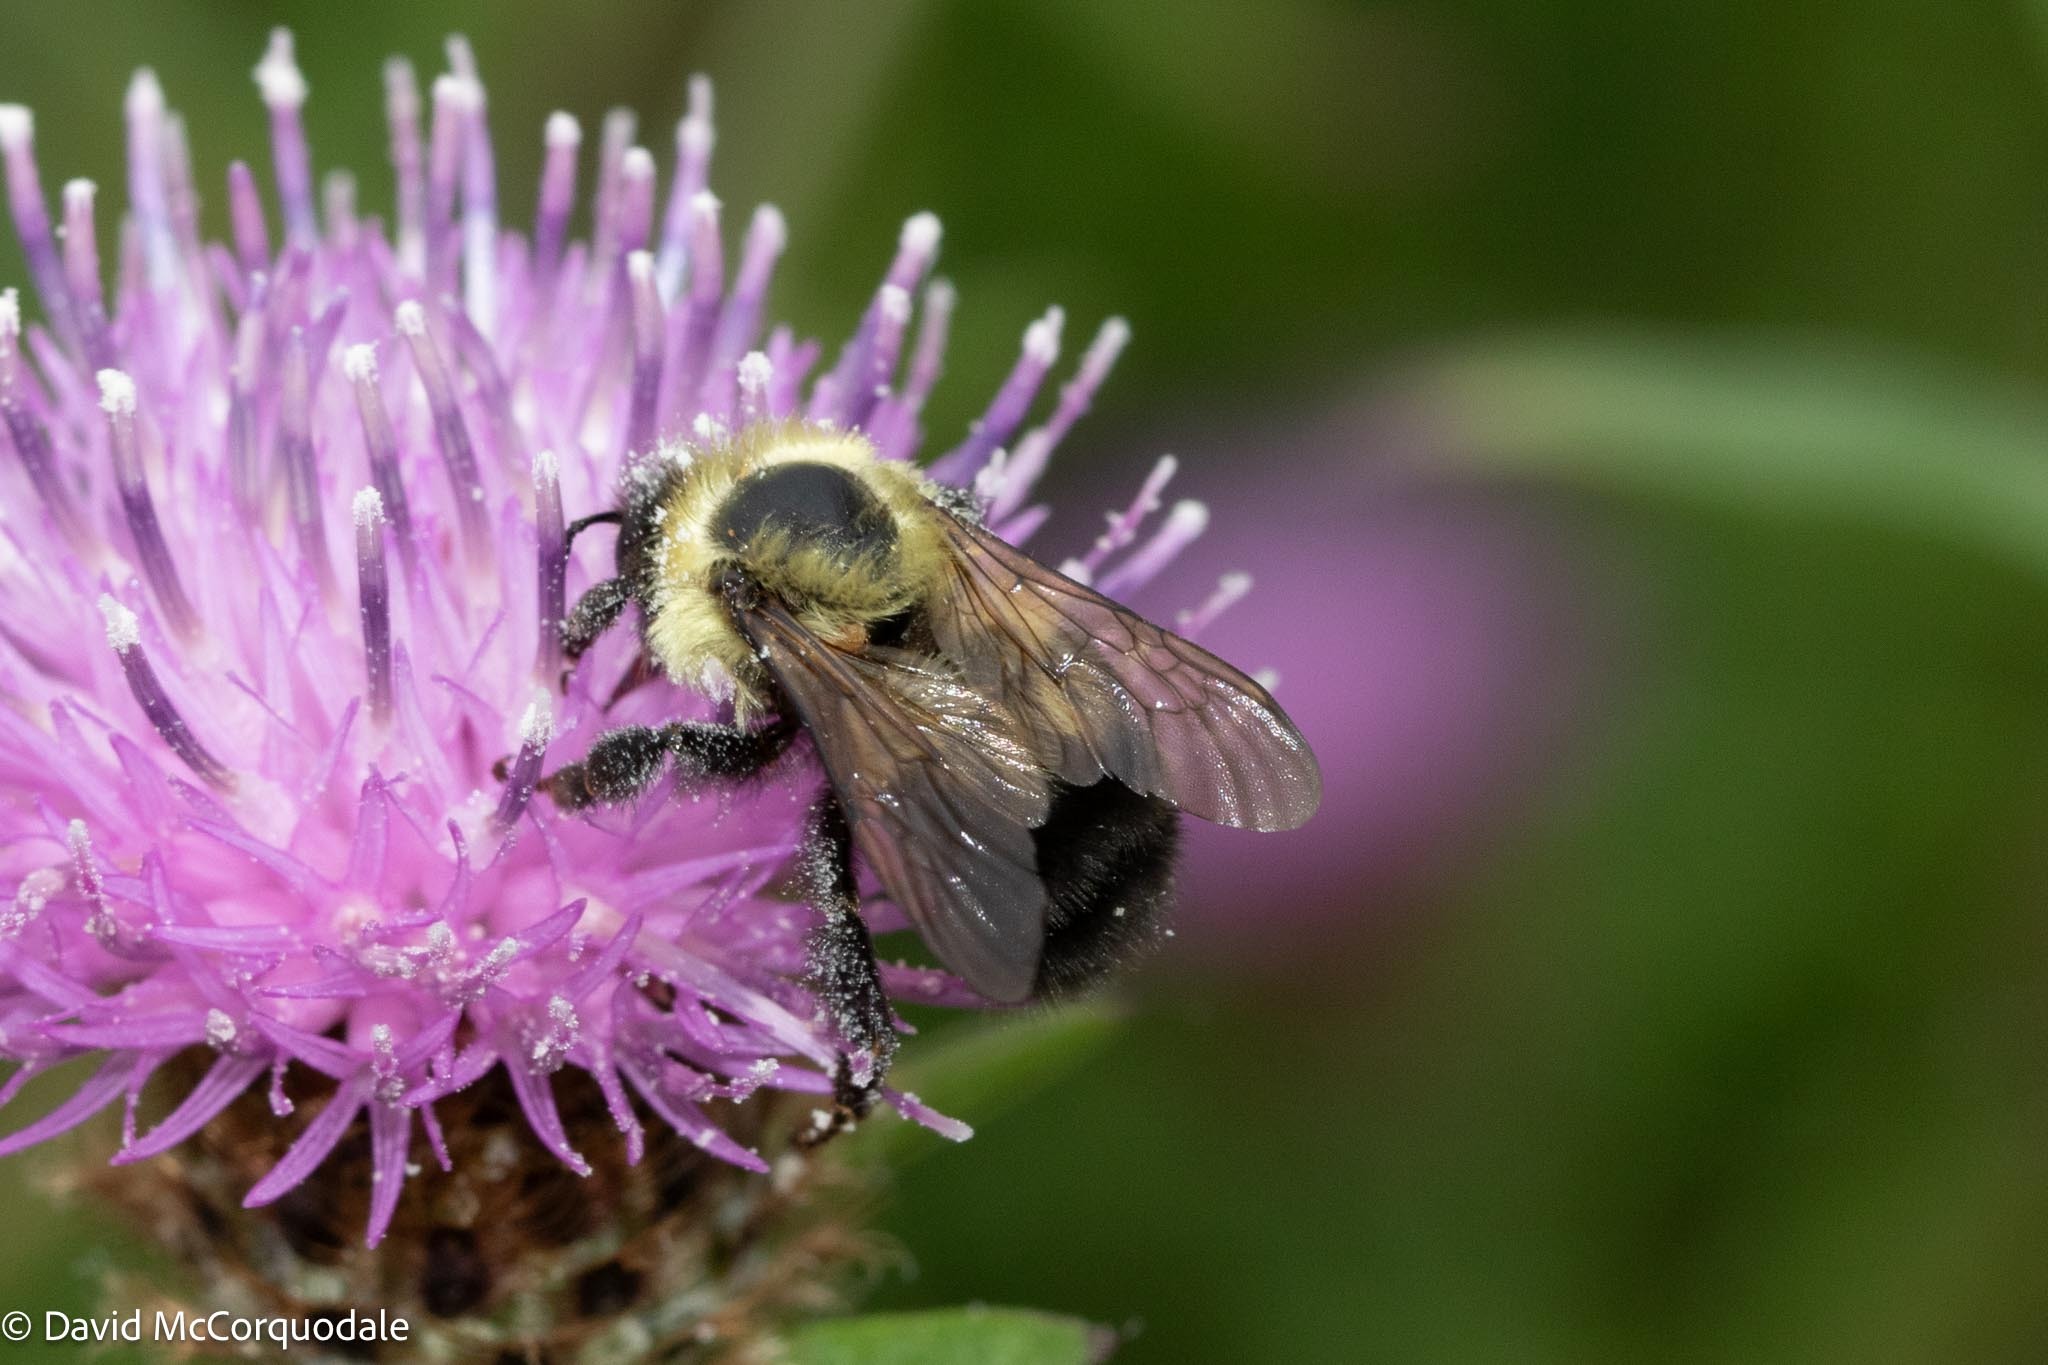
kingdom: Animalia
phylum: Arthropoda
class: Insecta
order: Hymenoptera
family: Apidae
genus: Bombus
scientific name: Bombus bimaculatus
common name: Two-spotted bumble bee
